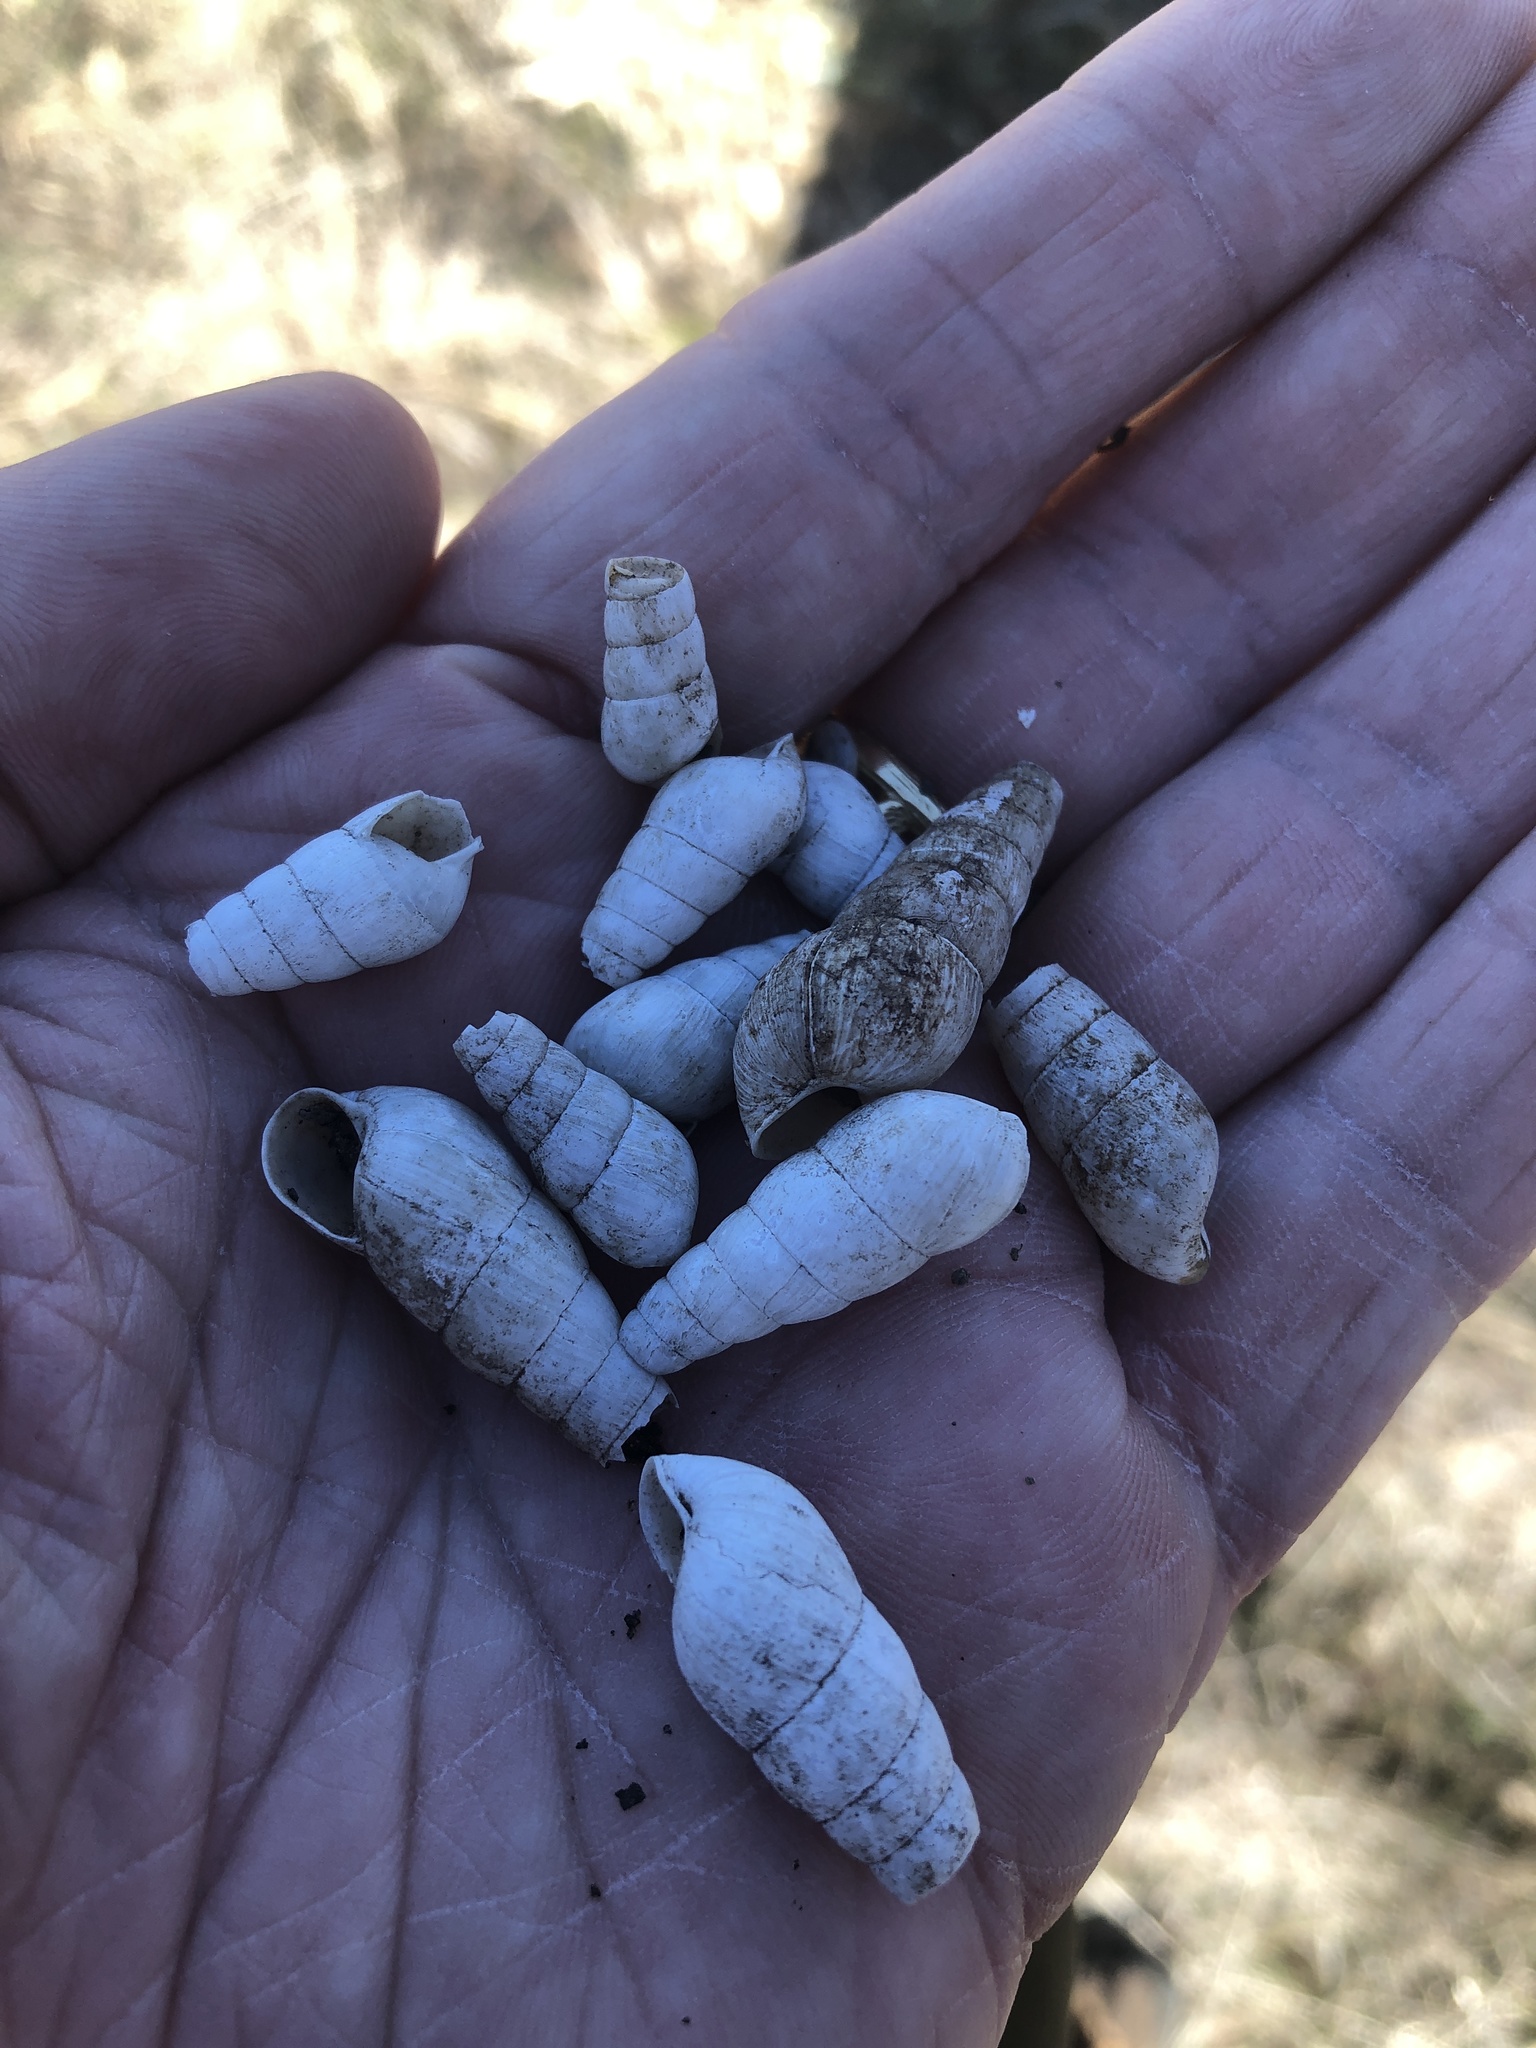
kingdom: Animalia
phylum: Mollusca
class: Gastropoda
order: Stylommatophora
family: Achatinidae
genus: Rumina
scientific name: Rumina decollata
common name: Decollate snail
